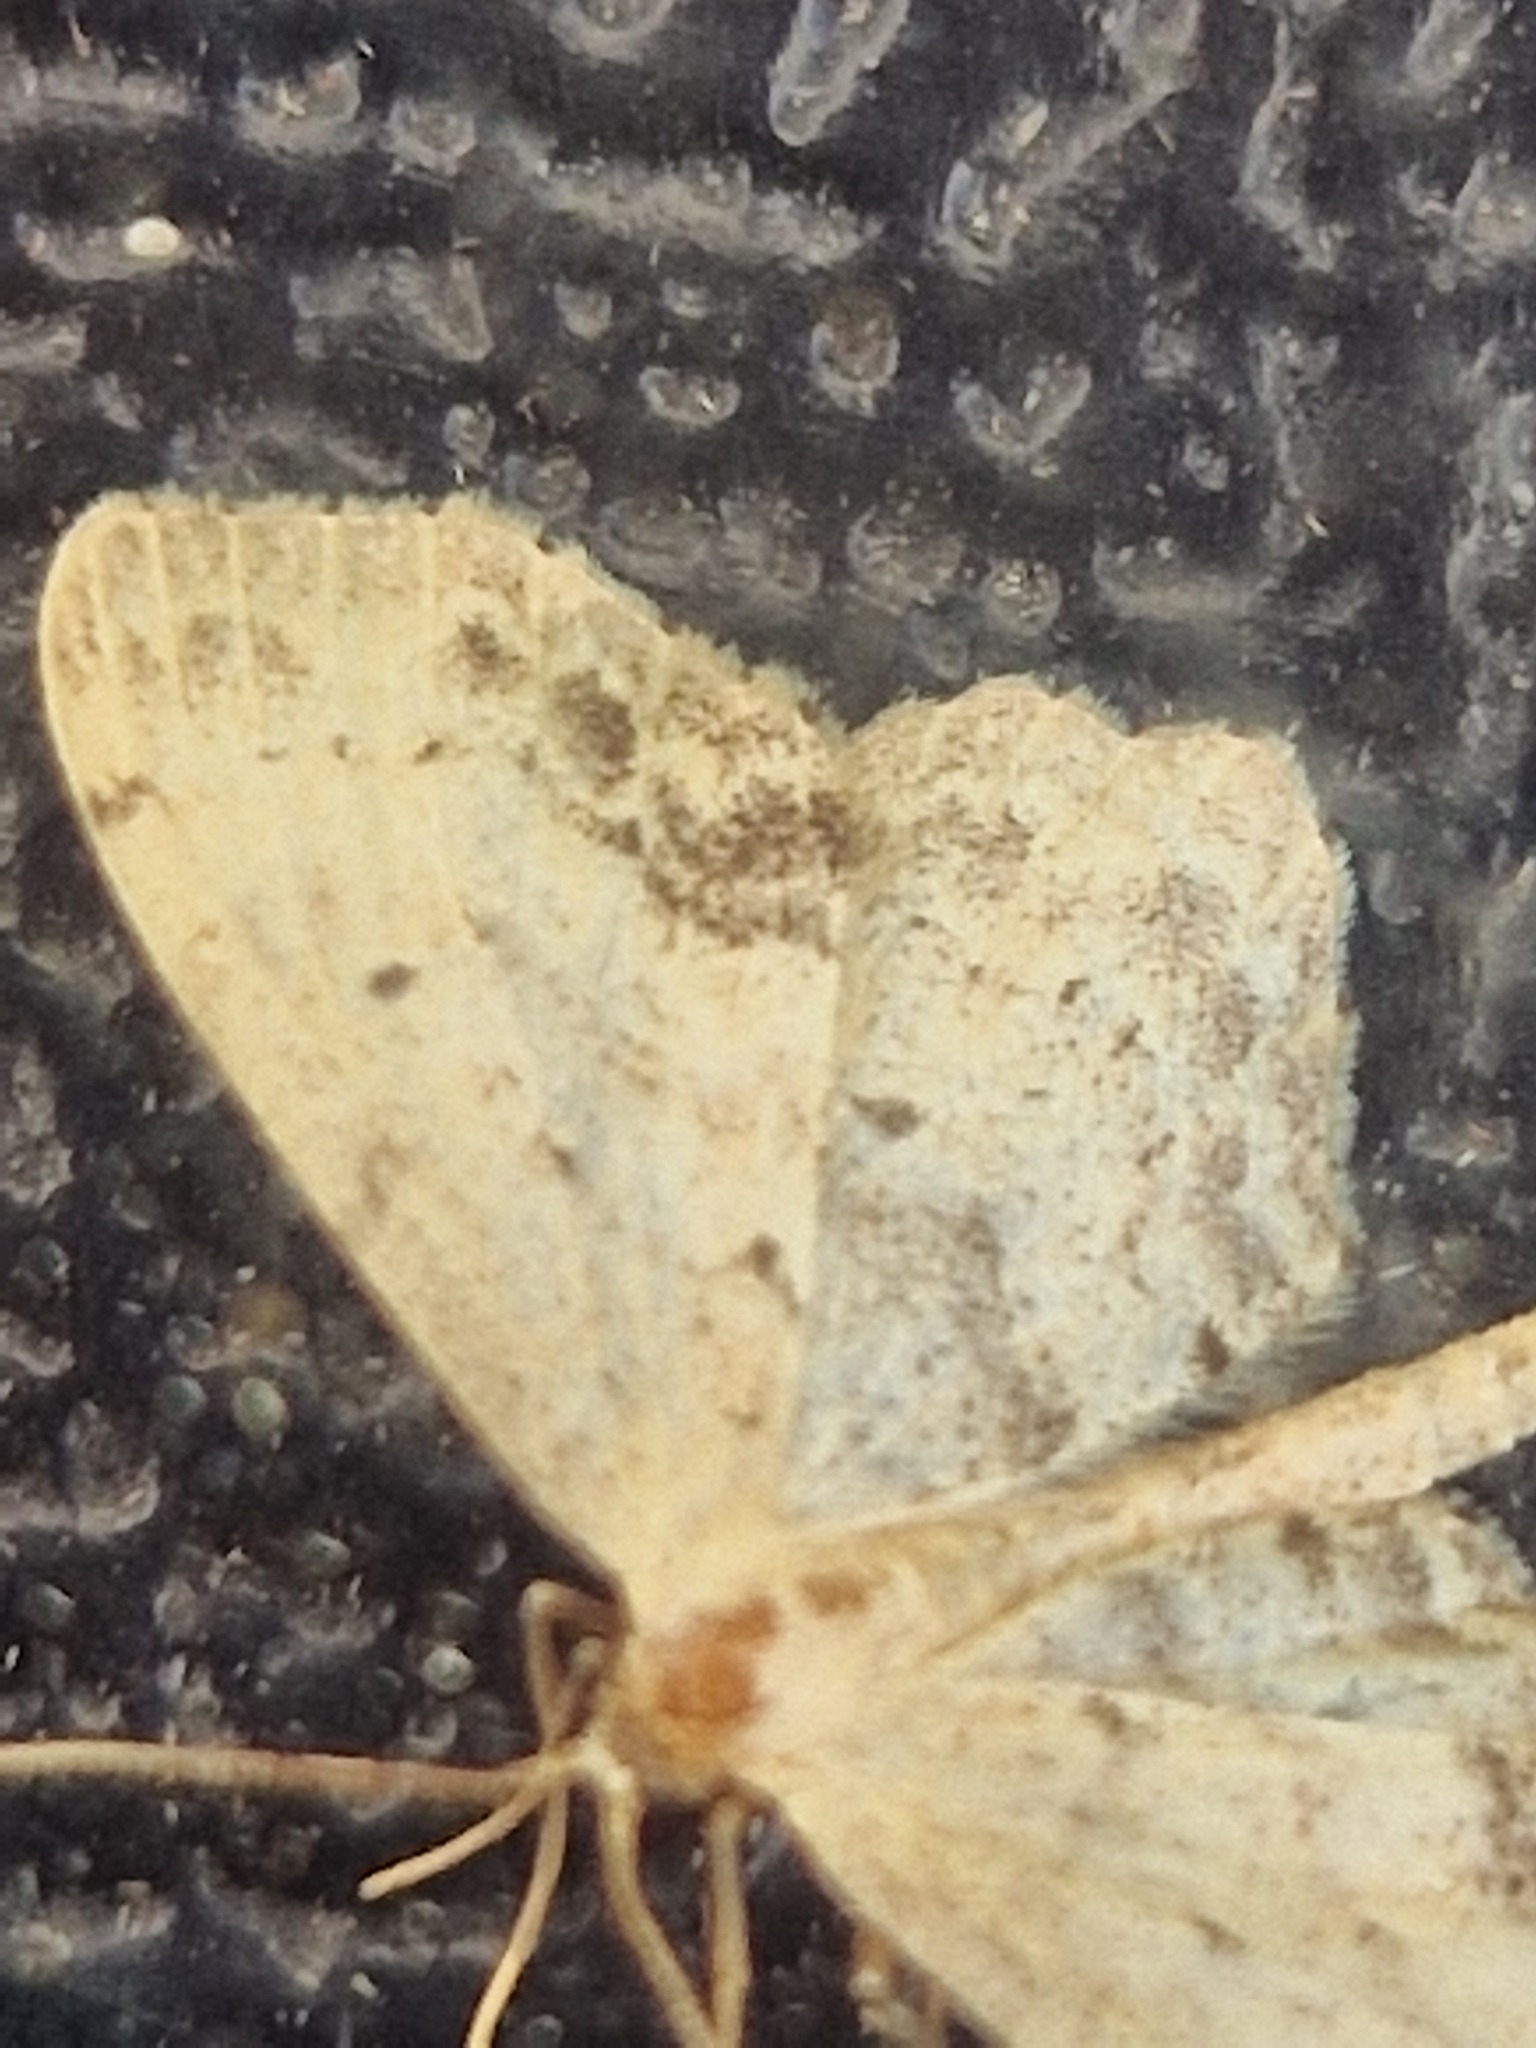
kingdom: Animalia
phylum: Arthropoda
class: Insecta
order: Lepidoptera
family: Geometridae
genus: Idaea
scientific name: Idaea dimidiata
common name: Single-dotted wave
